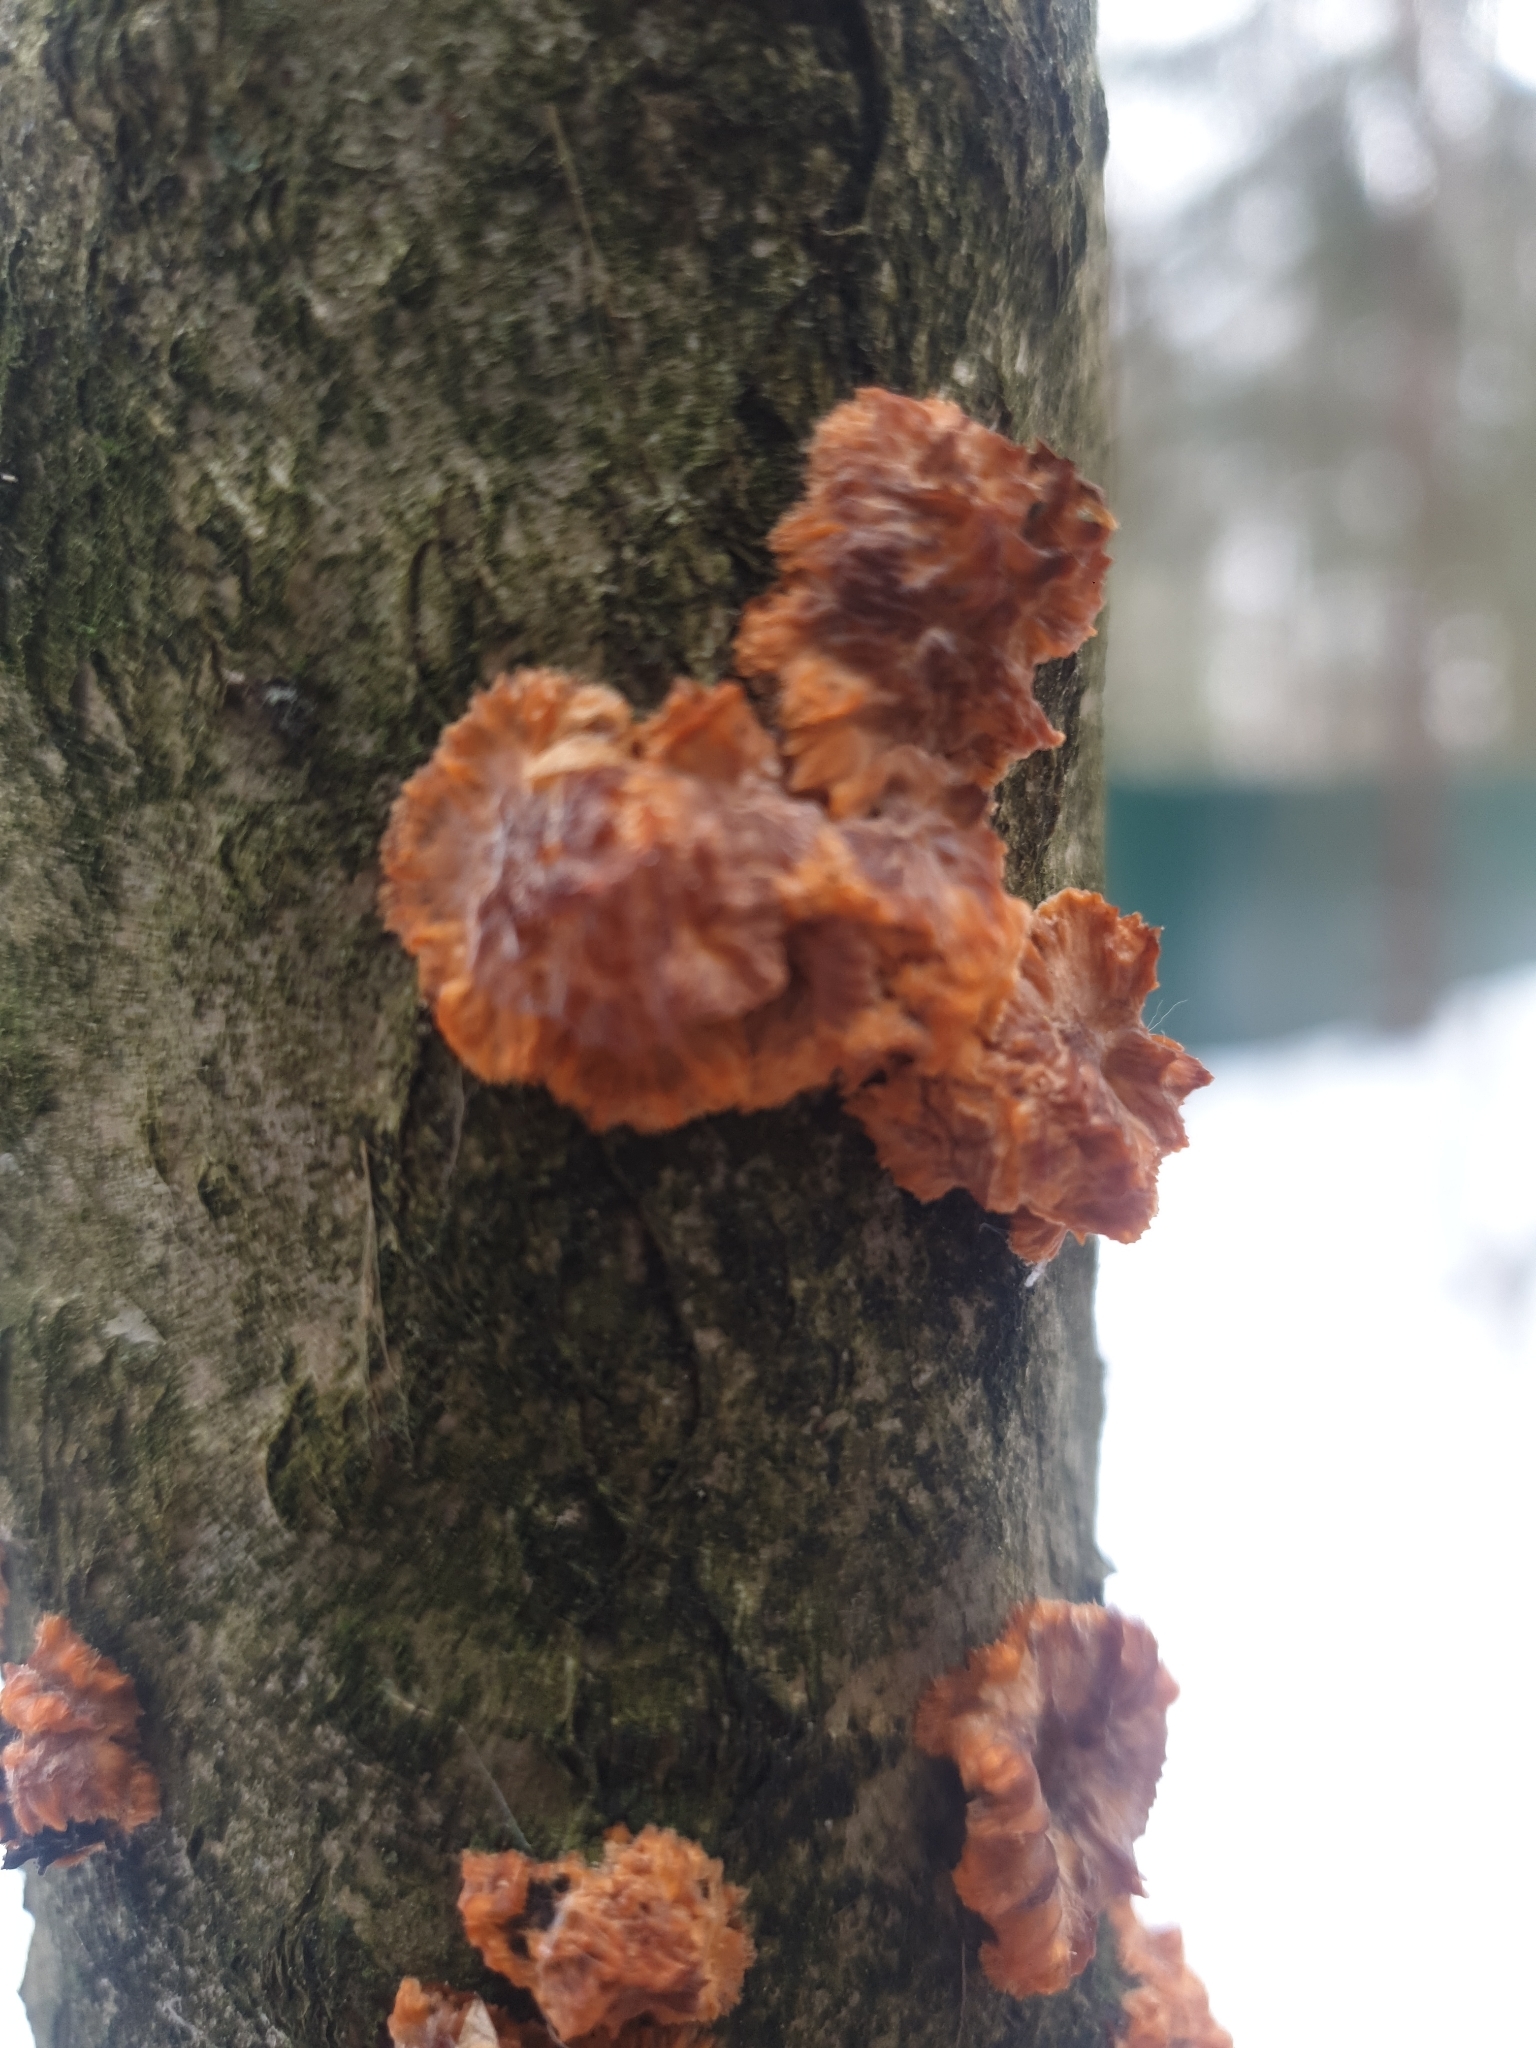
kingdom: Fungi
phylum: Basidiomycota
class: Agaricomycetes
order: Polyporales
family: Meruliaceae
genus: Phlebia
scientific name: Phlebia radiata
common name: Wrinkled crust
